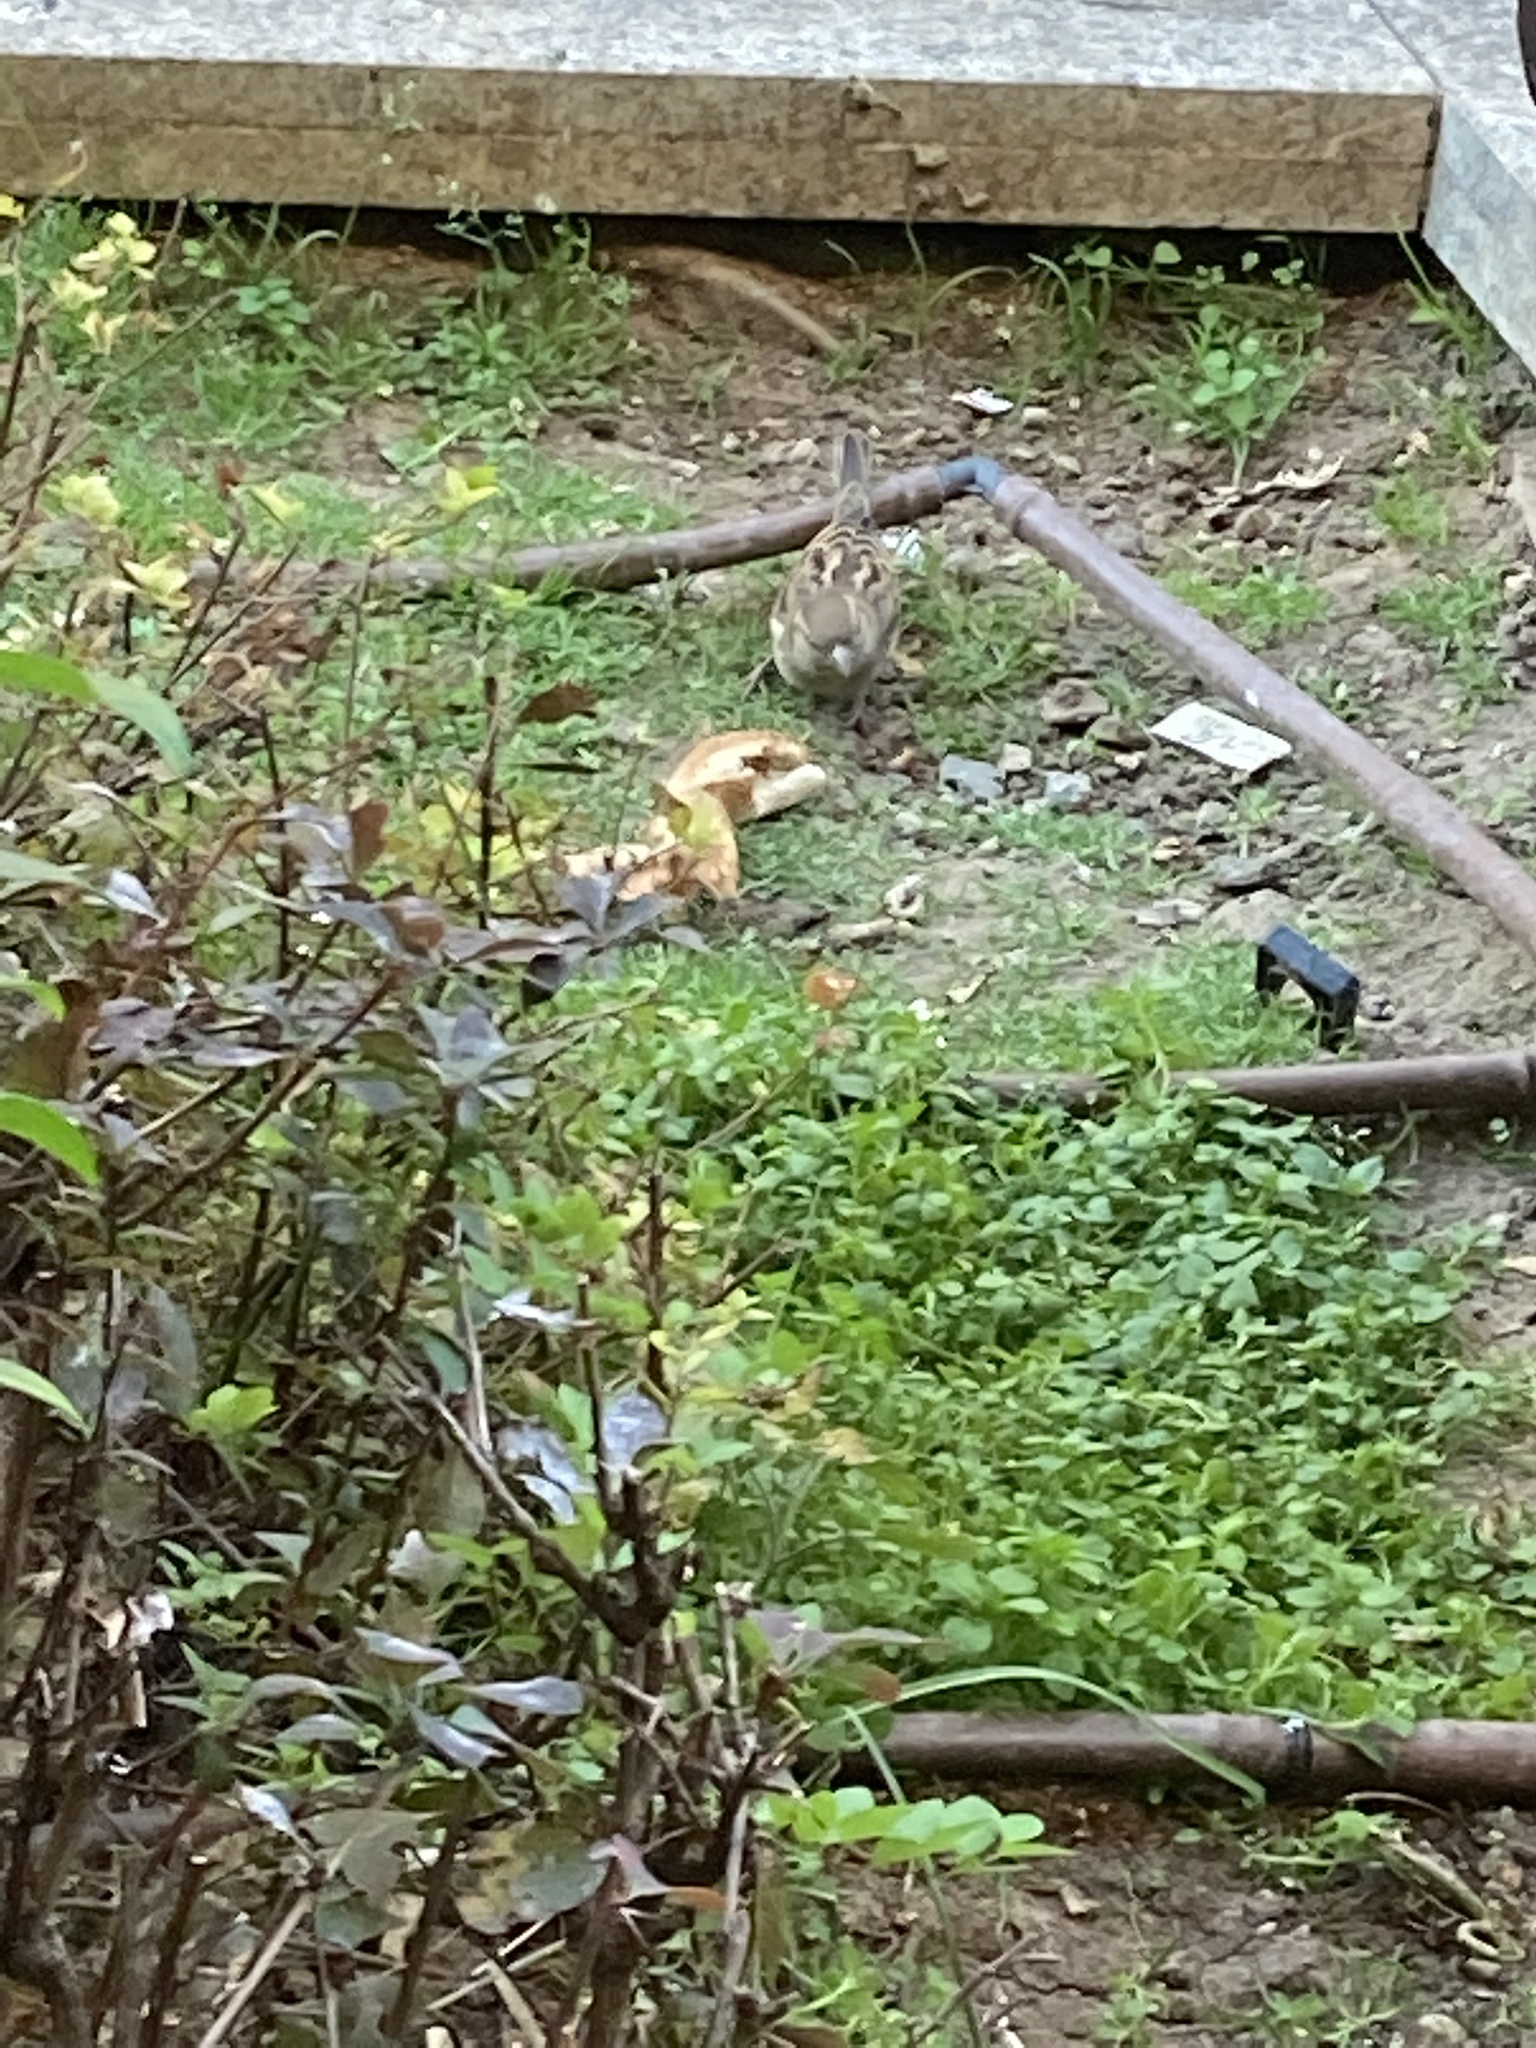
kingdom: Animalia
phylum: Chordata
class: Aves
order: Passeriformes
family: Passeridae
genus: Passer
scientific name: Passer domesticus
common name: House sparrow
